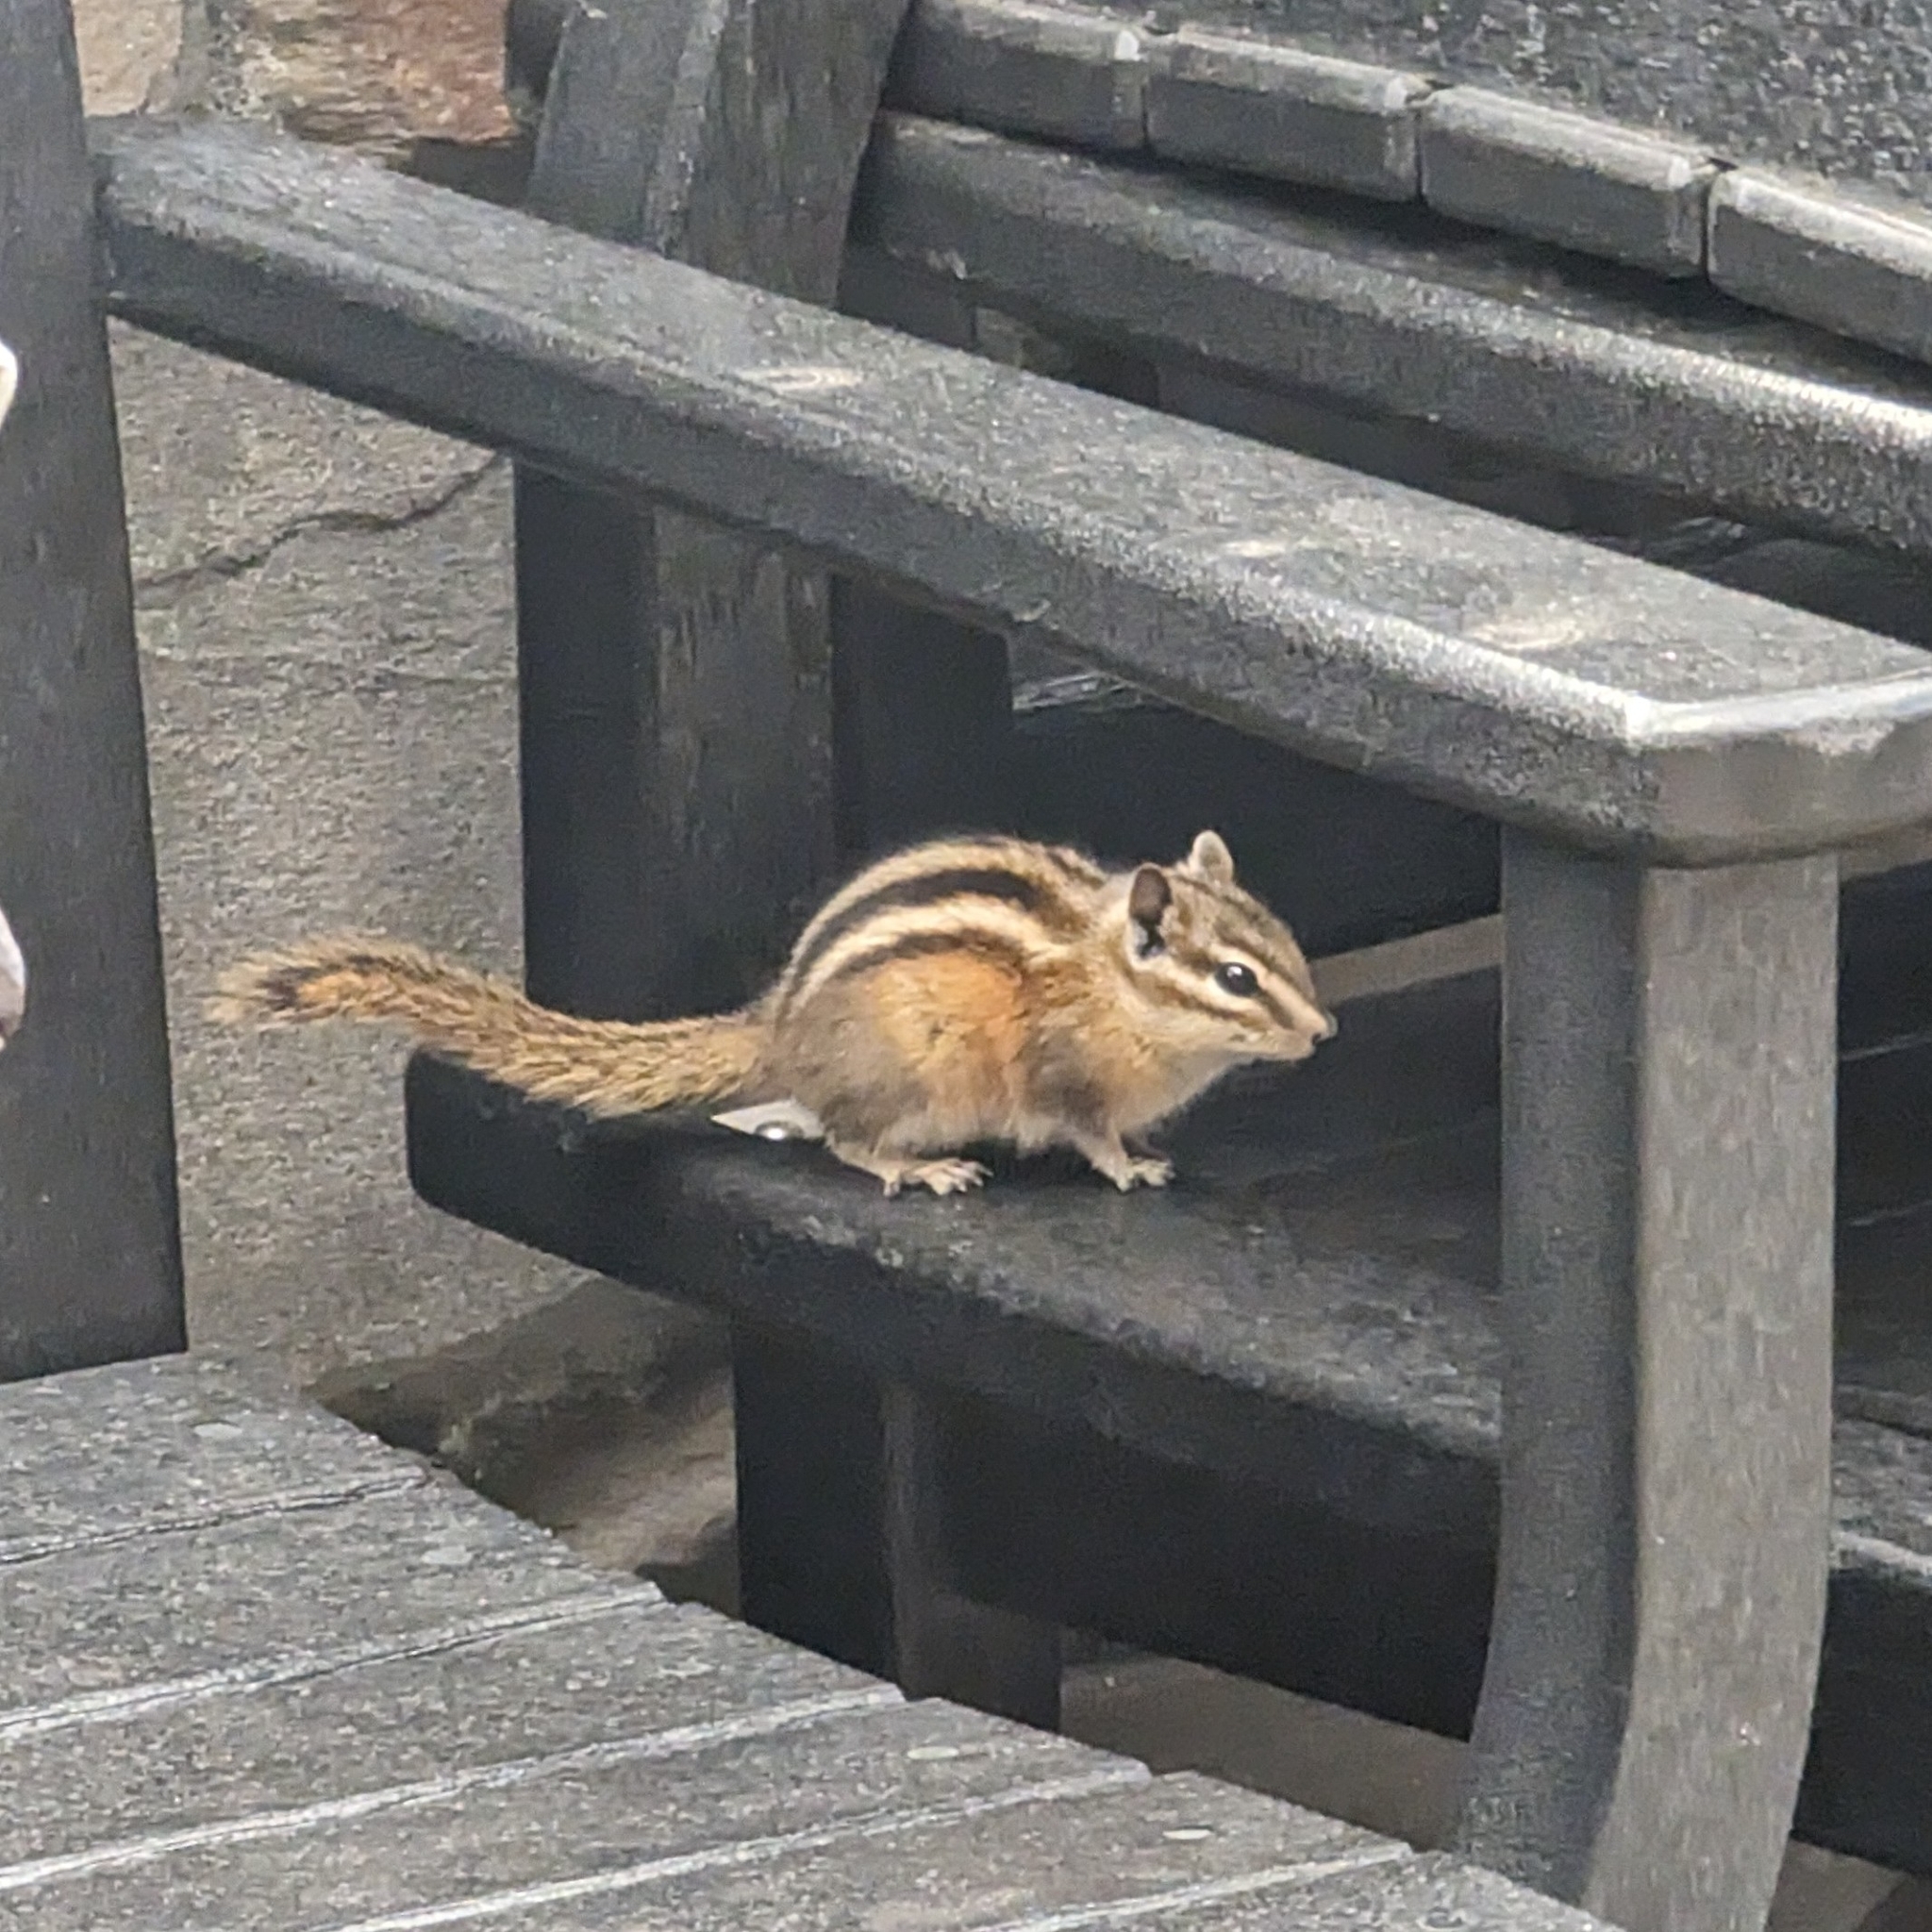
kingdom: Animalia
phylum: Chordata
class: Mammalia
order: Rodentia
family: Sciuridae
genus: Tamias
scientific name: Tamias minimus
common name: Least chipmunk
